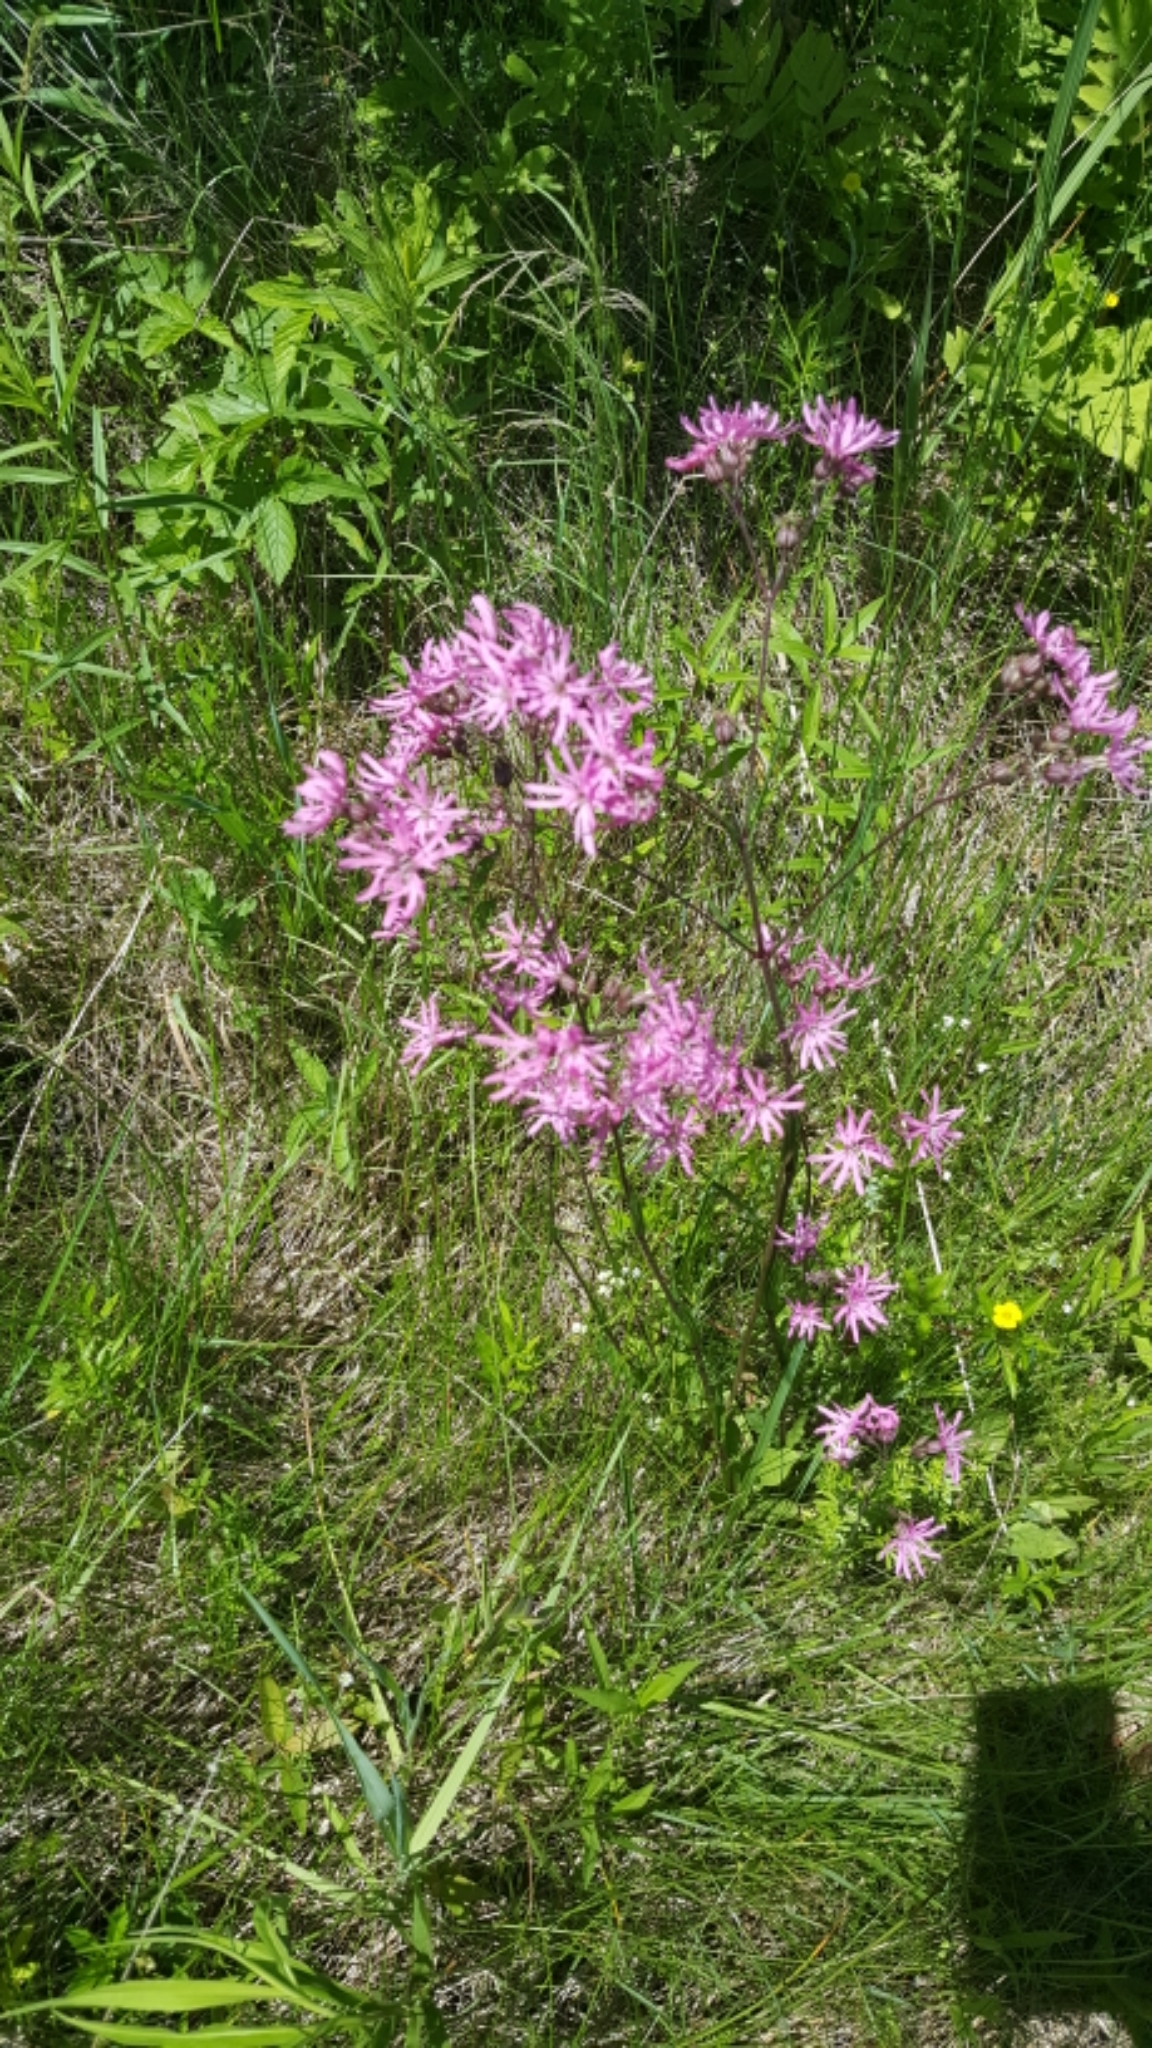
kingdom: Plantae
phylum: Tracheophyta
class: Magnoliopsida
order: Caryophyllales
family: Caryophyllaceae
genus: Silene
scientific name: Silene flos-cuculi
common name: Ragged-robin
